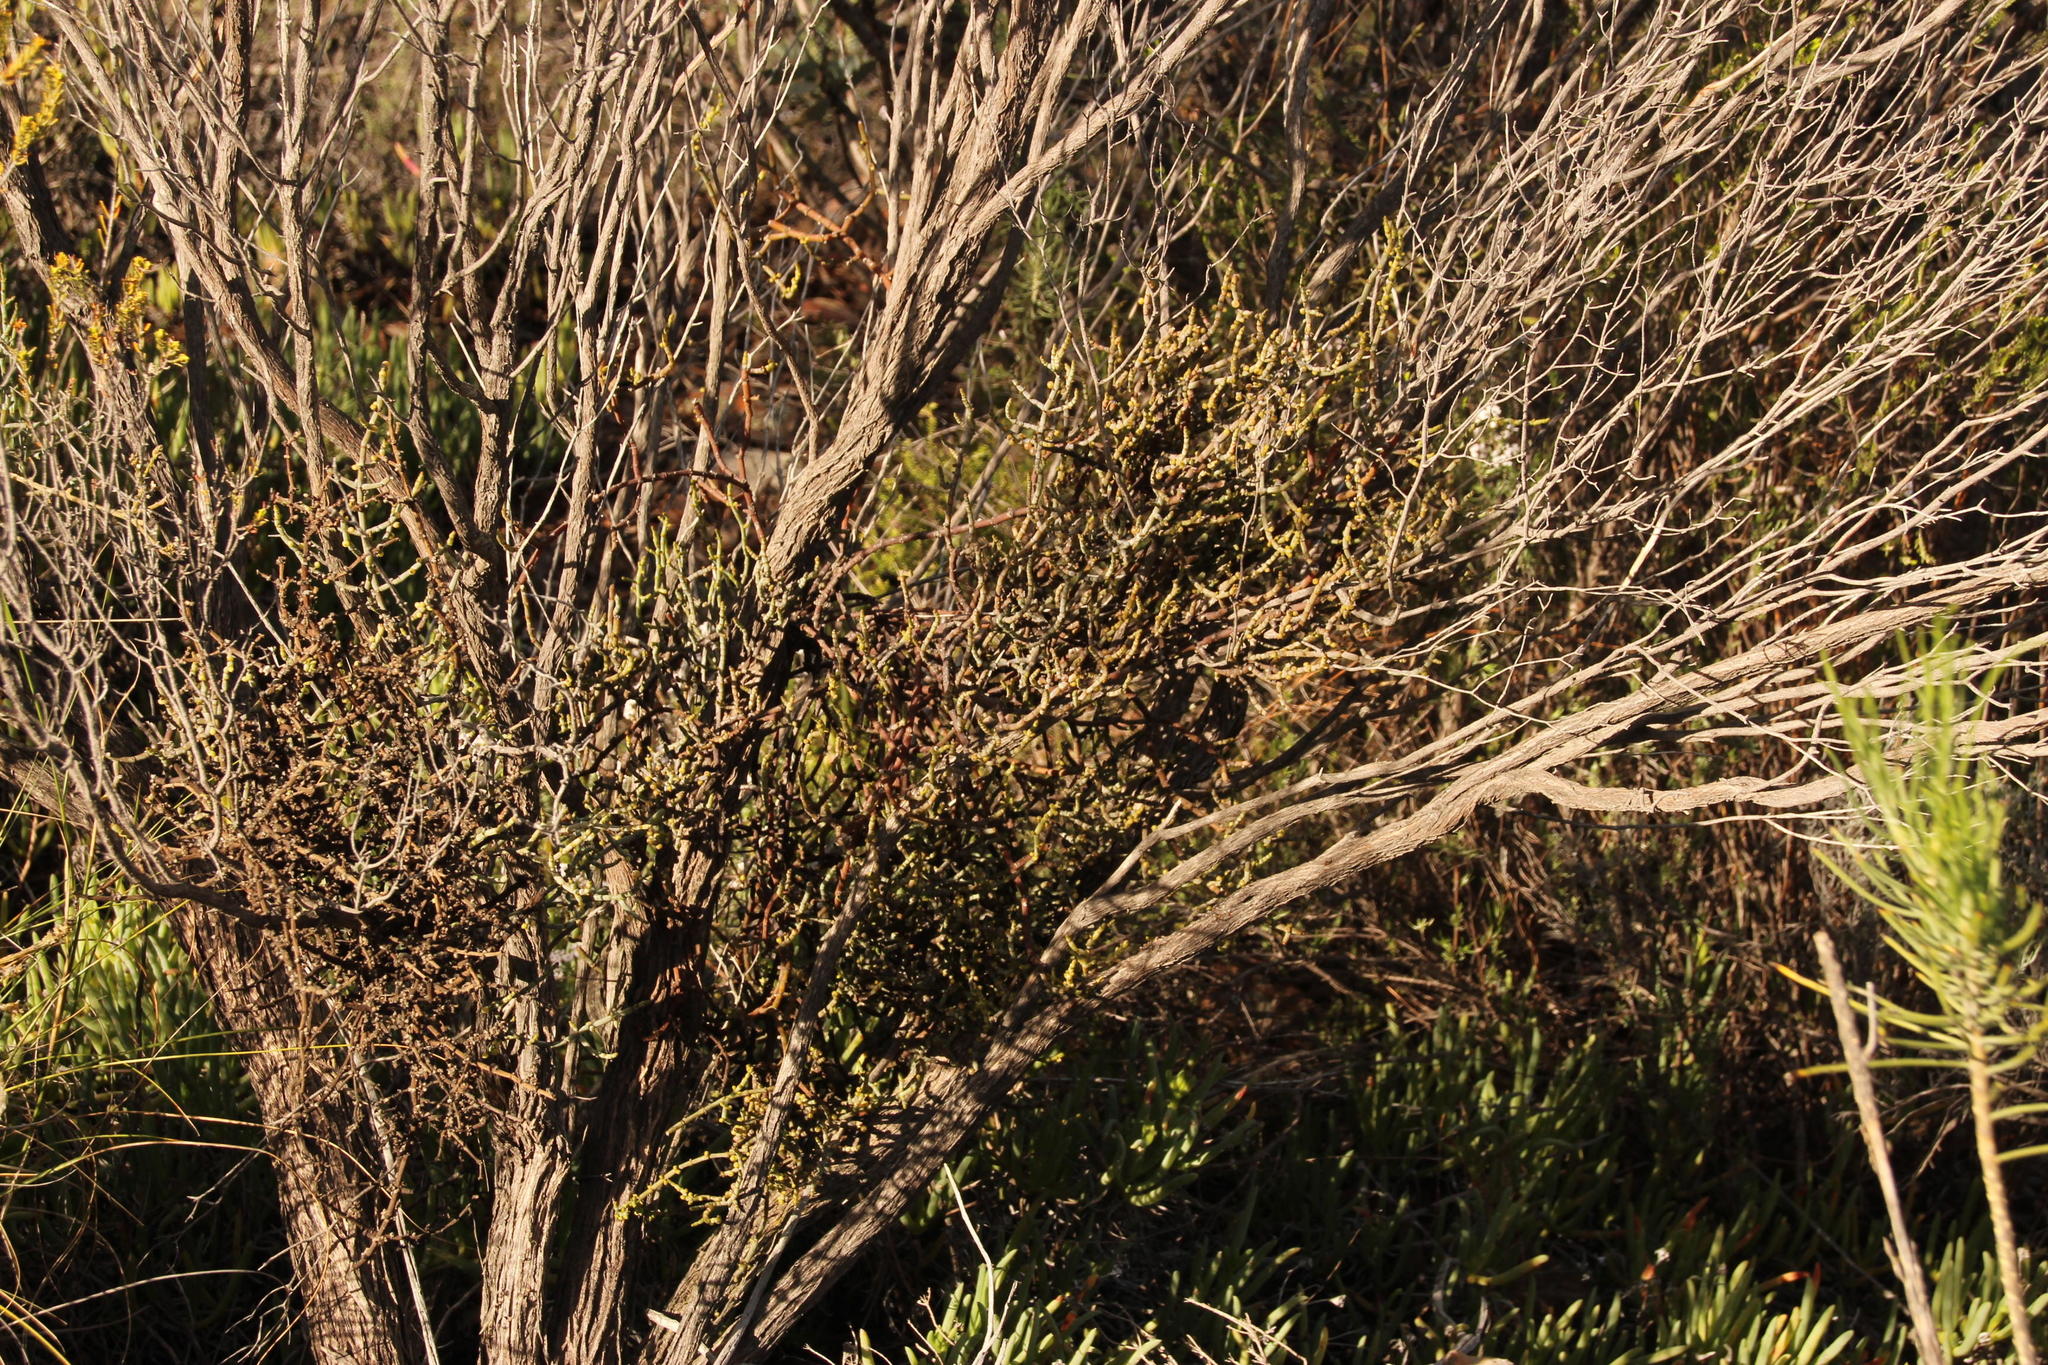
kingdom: Plantae
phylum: Tracheophyta
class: Magnoliopsida
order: Santalales
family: Viscaceae
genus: Viscum
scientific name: Viscum capense
